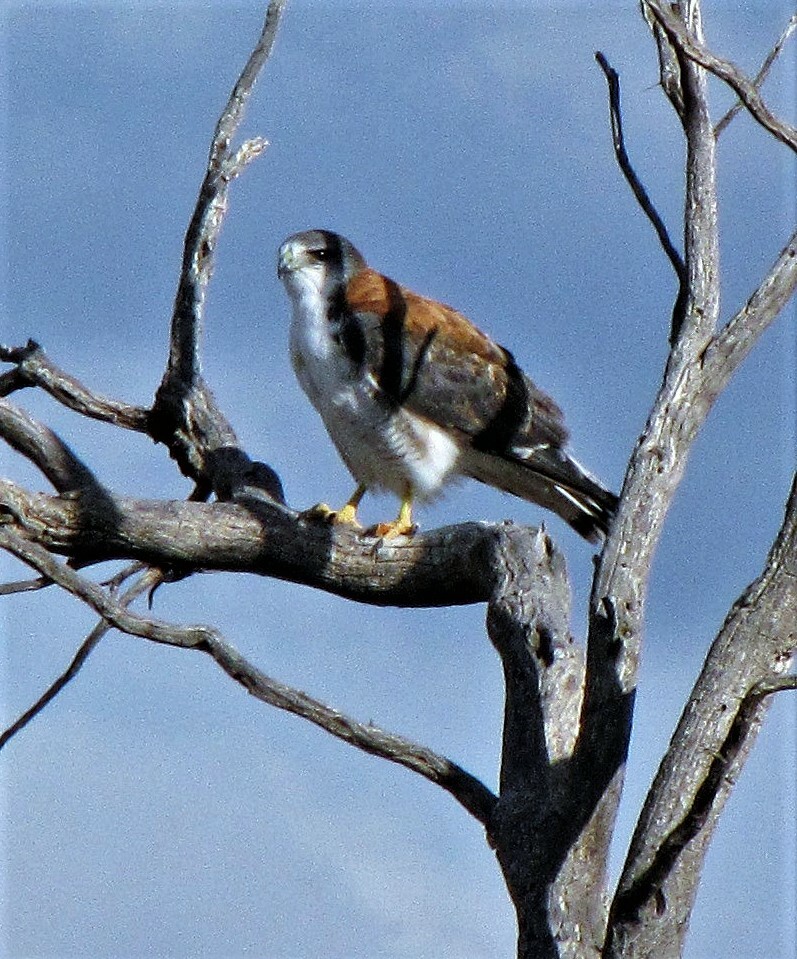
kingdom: Animalia
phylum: Chordata
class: Aves
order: Accipitriformes
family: Accipitridae
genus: Buteo
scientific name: Buteo polyosoma
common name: Variable hawk
